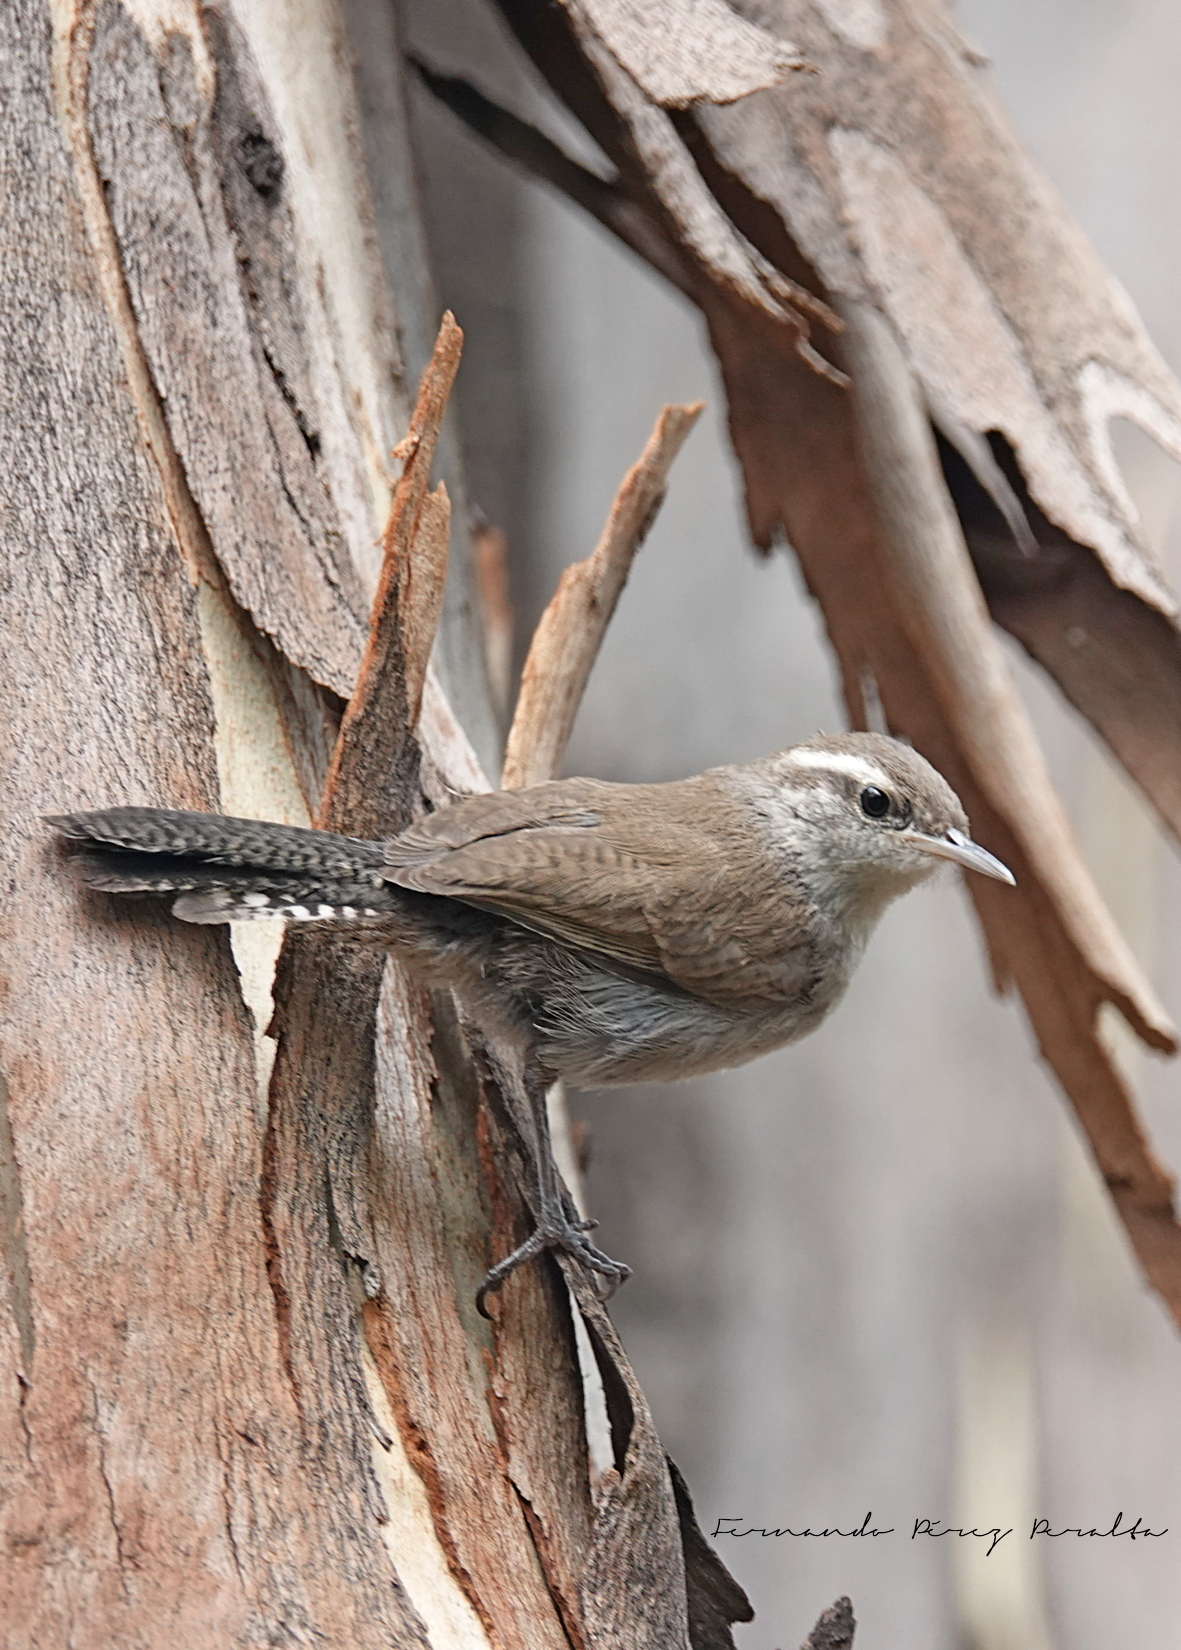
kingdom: Animalia
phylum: Chordata
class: Aves
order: Passeriformes
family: Troglodytidae
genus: Thryomanes
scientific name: Thryomanes bewickii
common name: Bewick's wren
